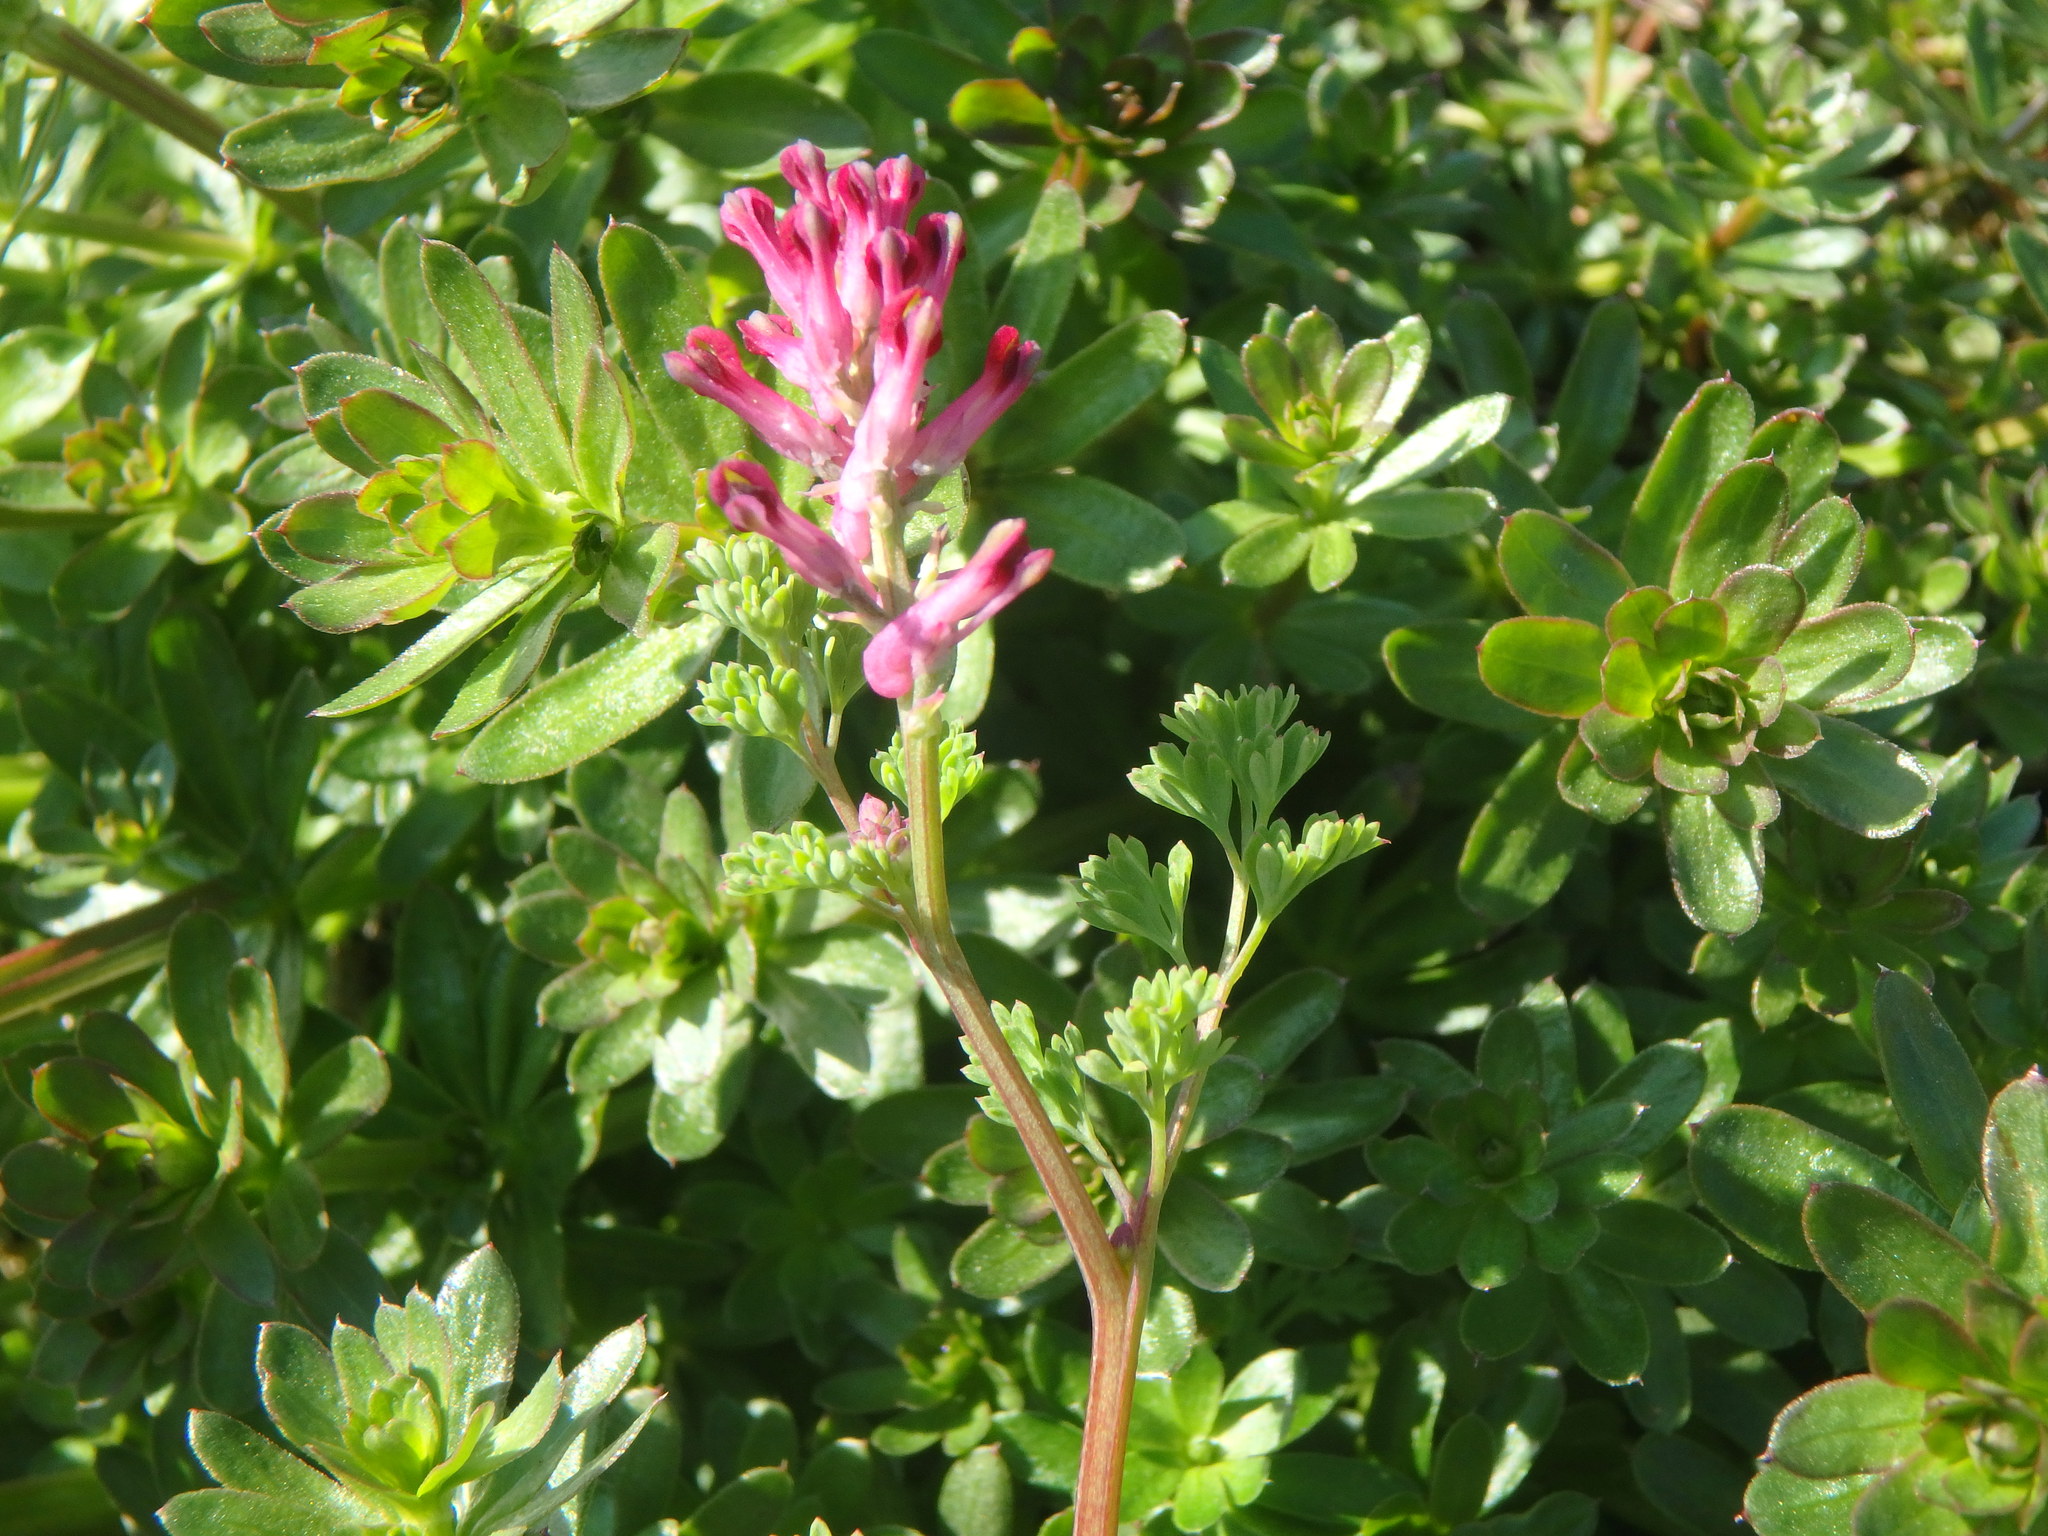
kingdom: Plantae
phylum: Tracheophyta
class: Magnoliopsida
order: Ranunculales
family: Papaveraceae
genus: Fumaria
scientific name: Fumaria officinalis
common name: Common fumitory
